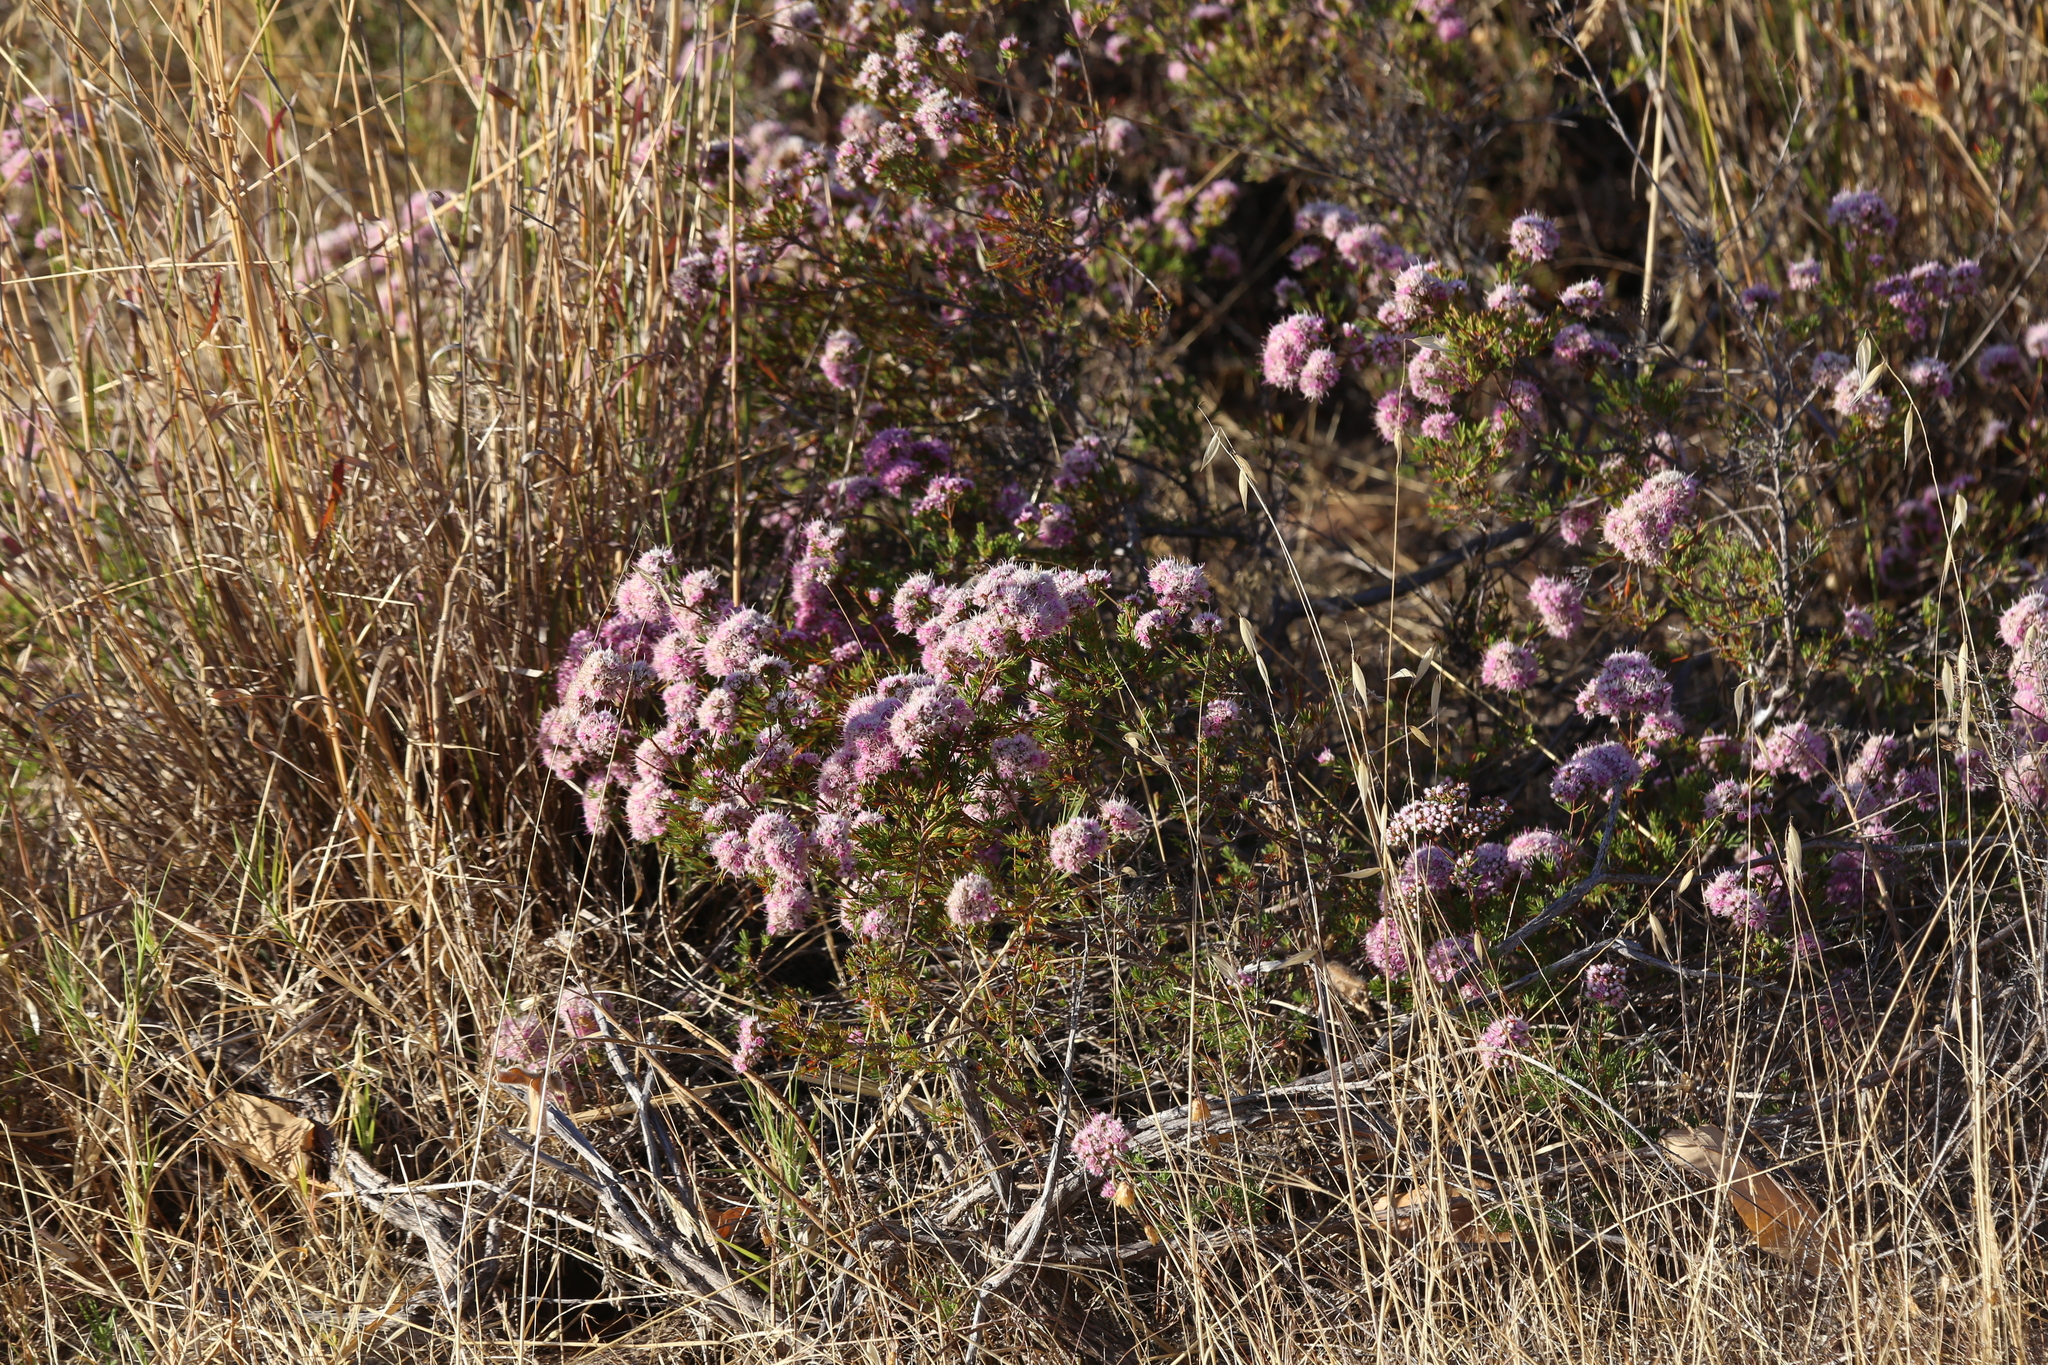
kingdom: Plantae
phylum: Tracheophyta
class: Magnoliopsida
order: Myrtales
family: Myrtaceae
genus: Verticordia
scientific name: Verticordia densiflora
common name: Compact feather-flower
